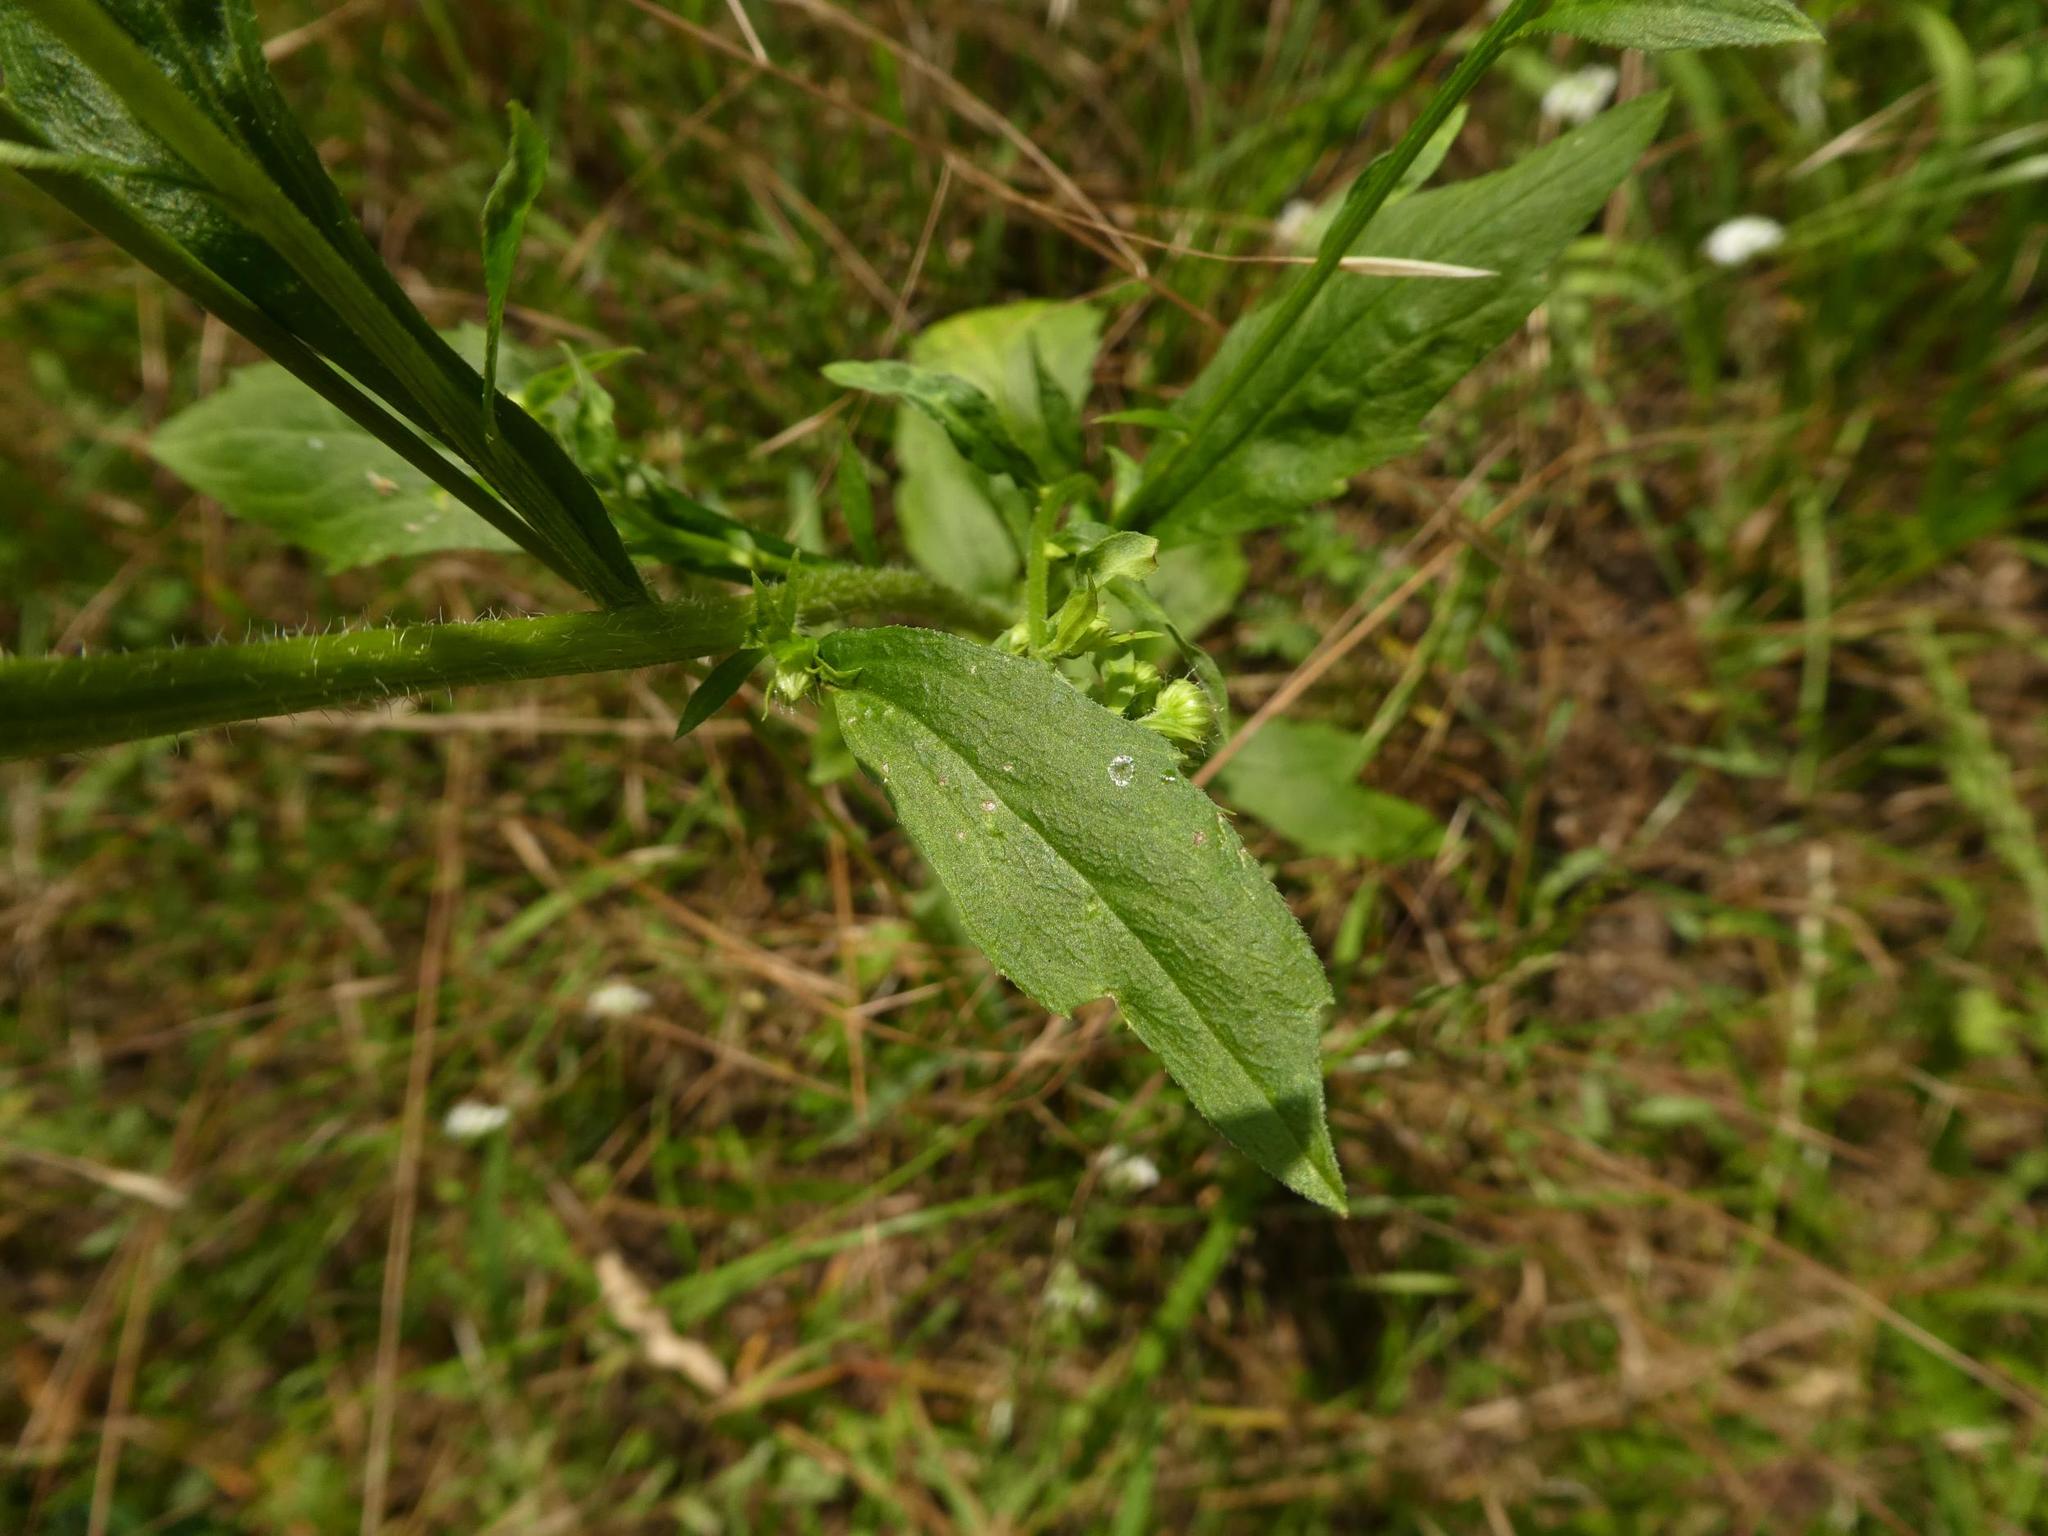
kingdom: Plantae
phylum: Tracheophyta
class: Magnoliopsida
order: Asterales
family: Asteraceae
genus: Erigeron
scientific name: Erigeron annuus
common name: Tall fleabane
